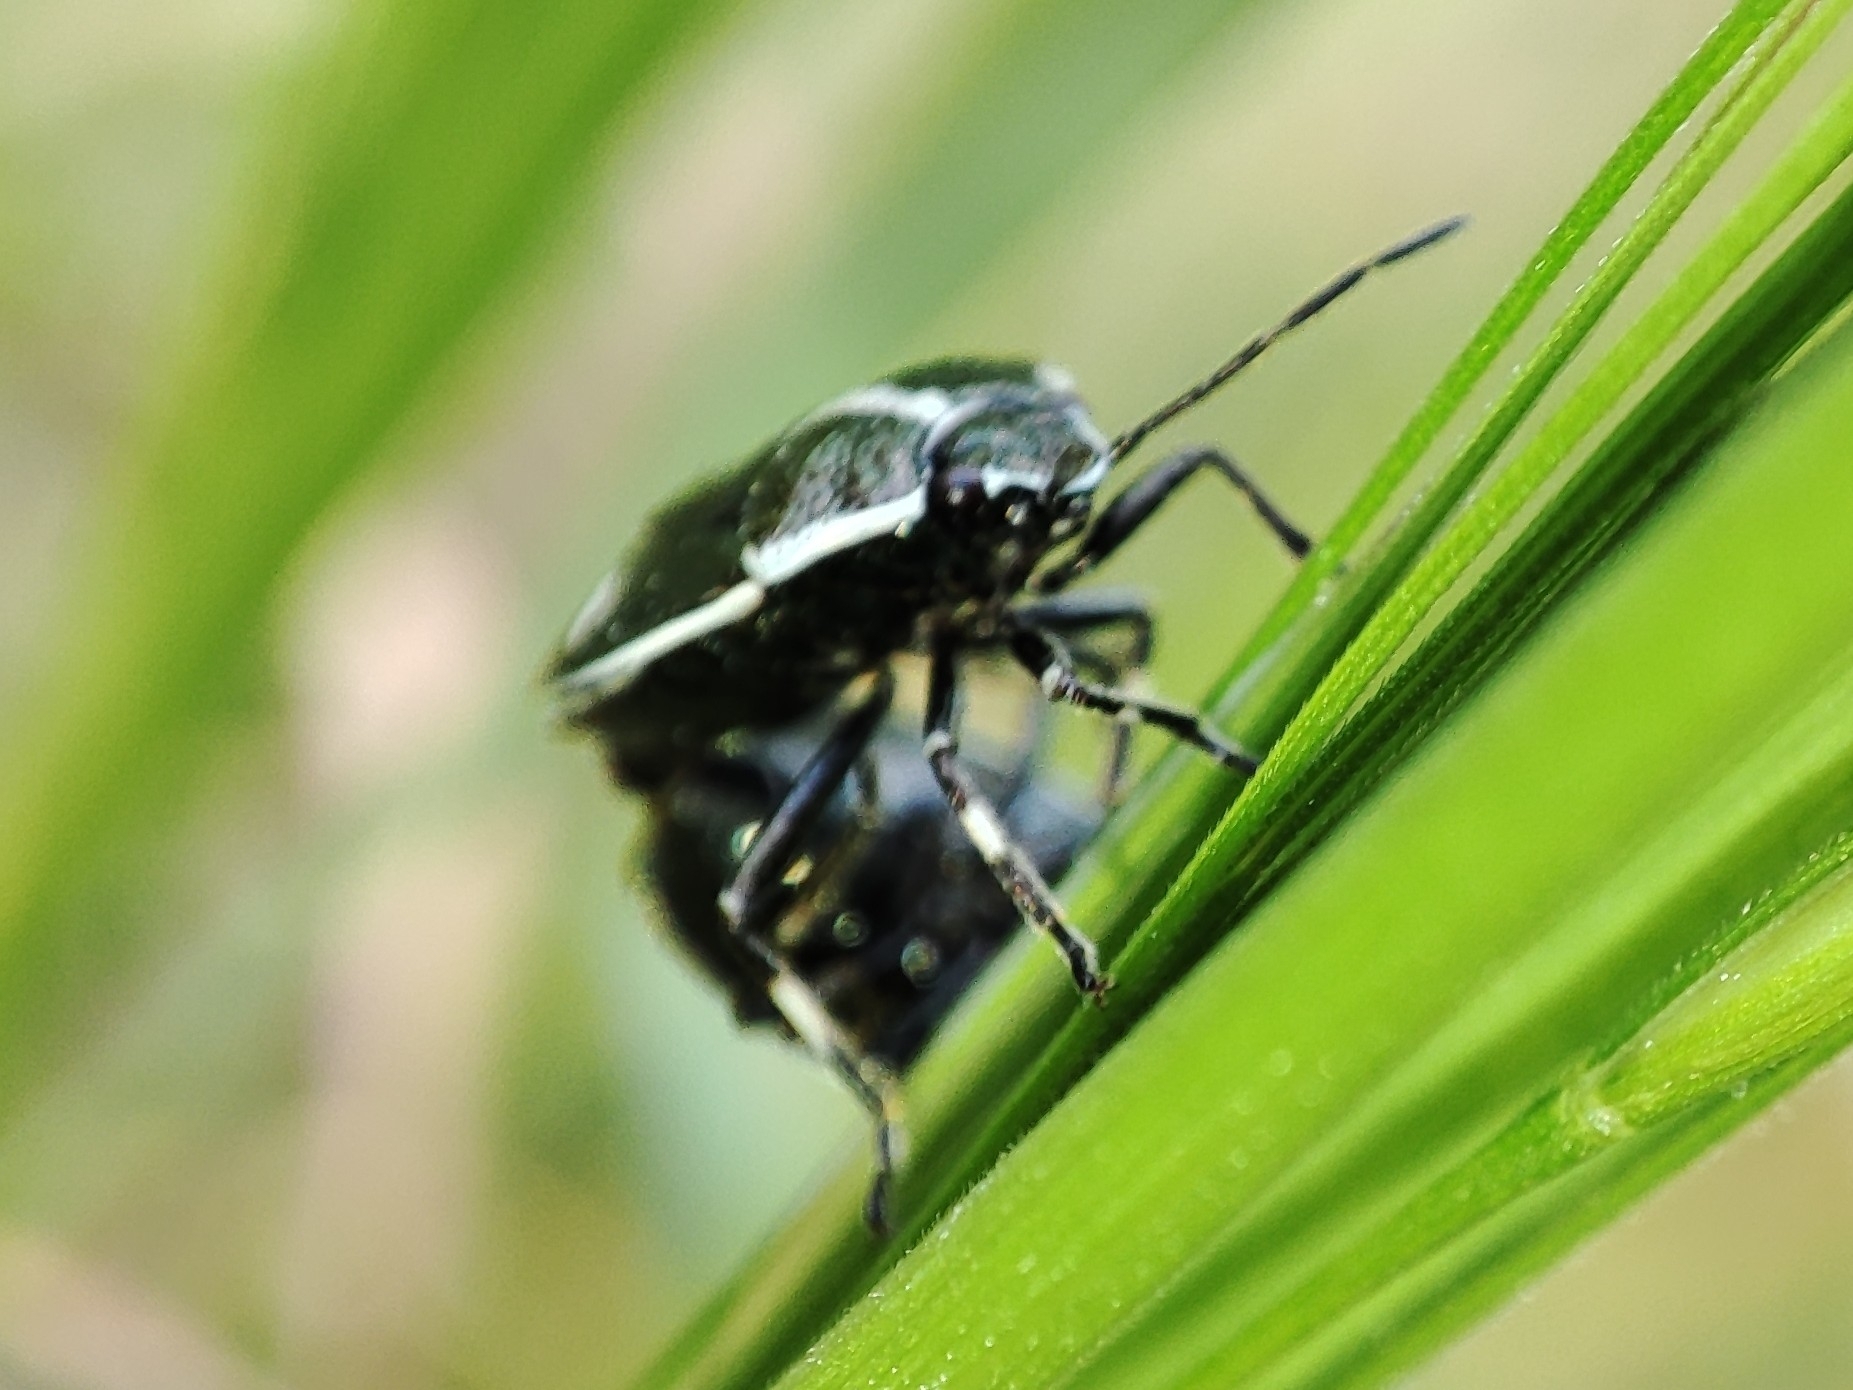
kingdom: Animalia
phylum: Arthropoda
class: Insecta
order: Hemiptera
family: Pentatomidae
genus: Eurydema
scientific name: Eurydema oleracea
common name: Cabbage bug
